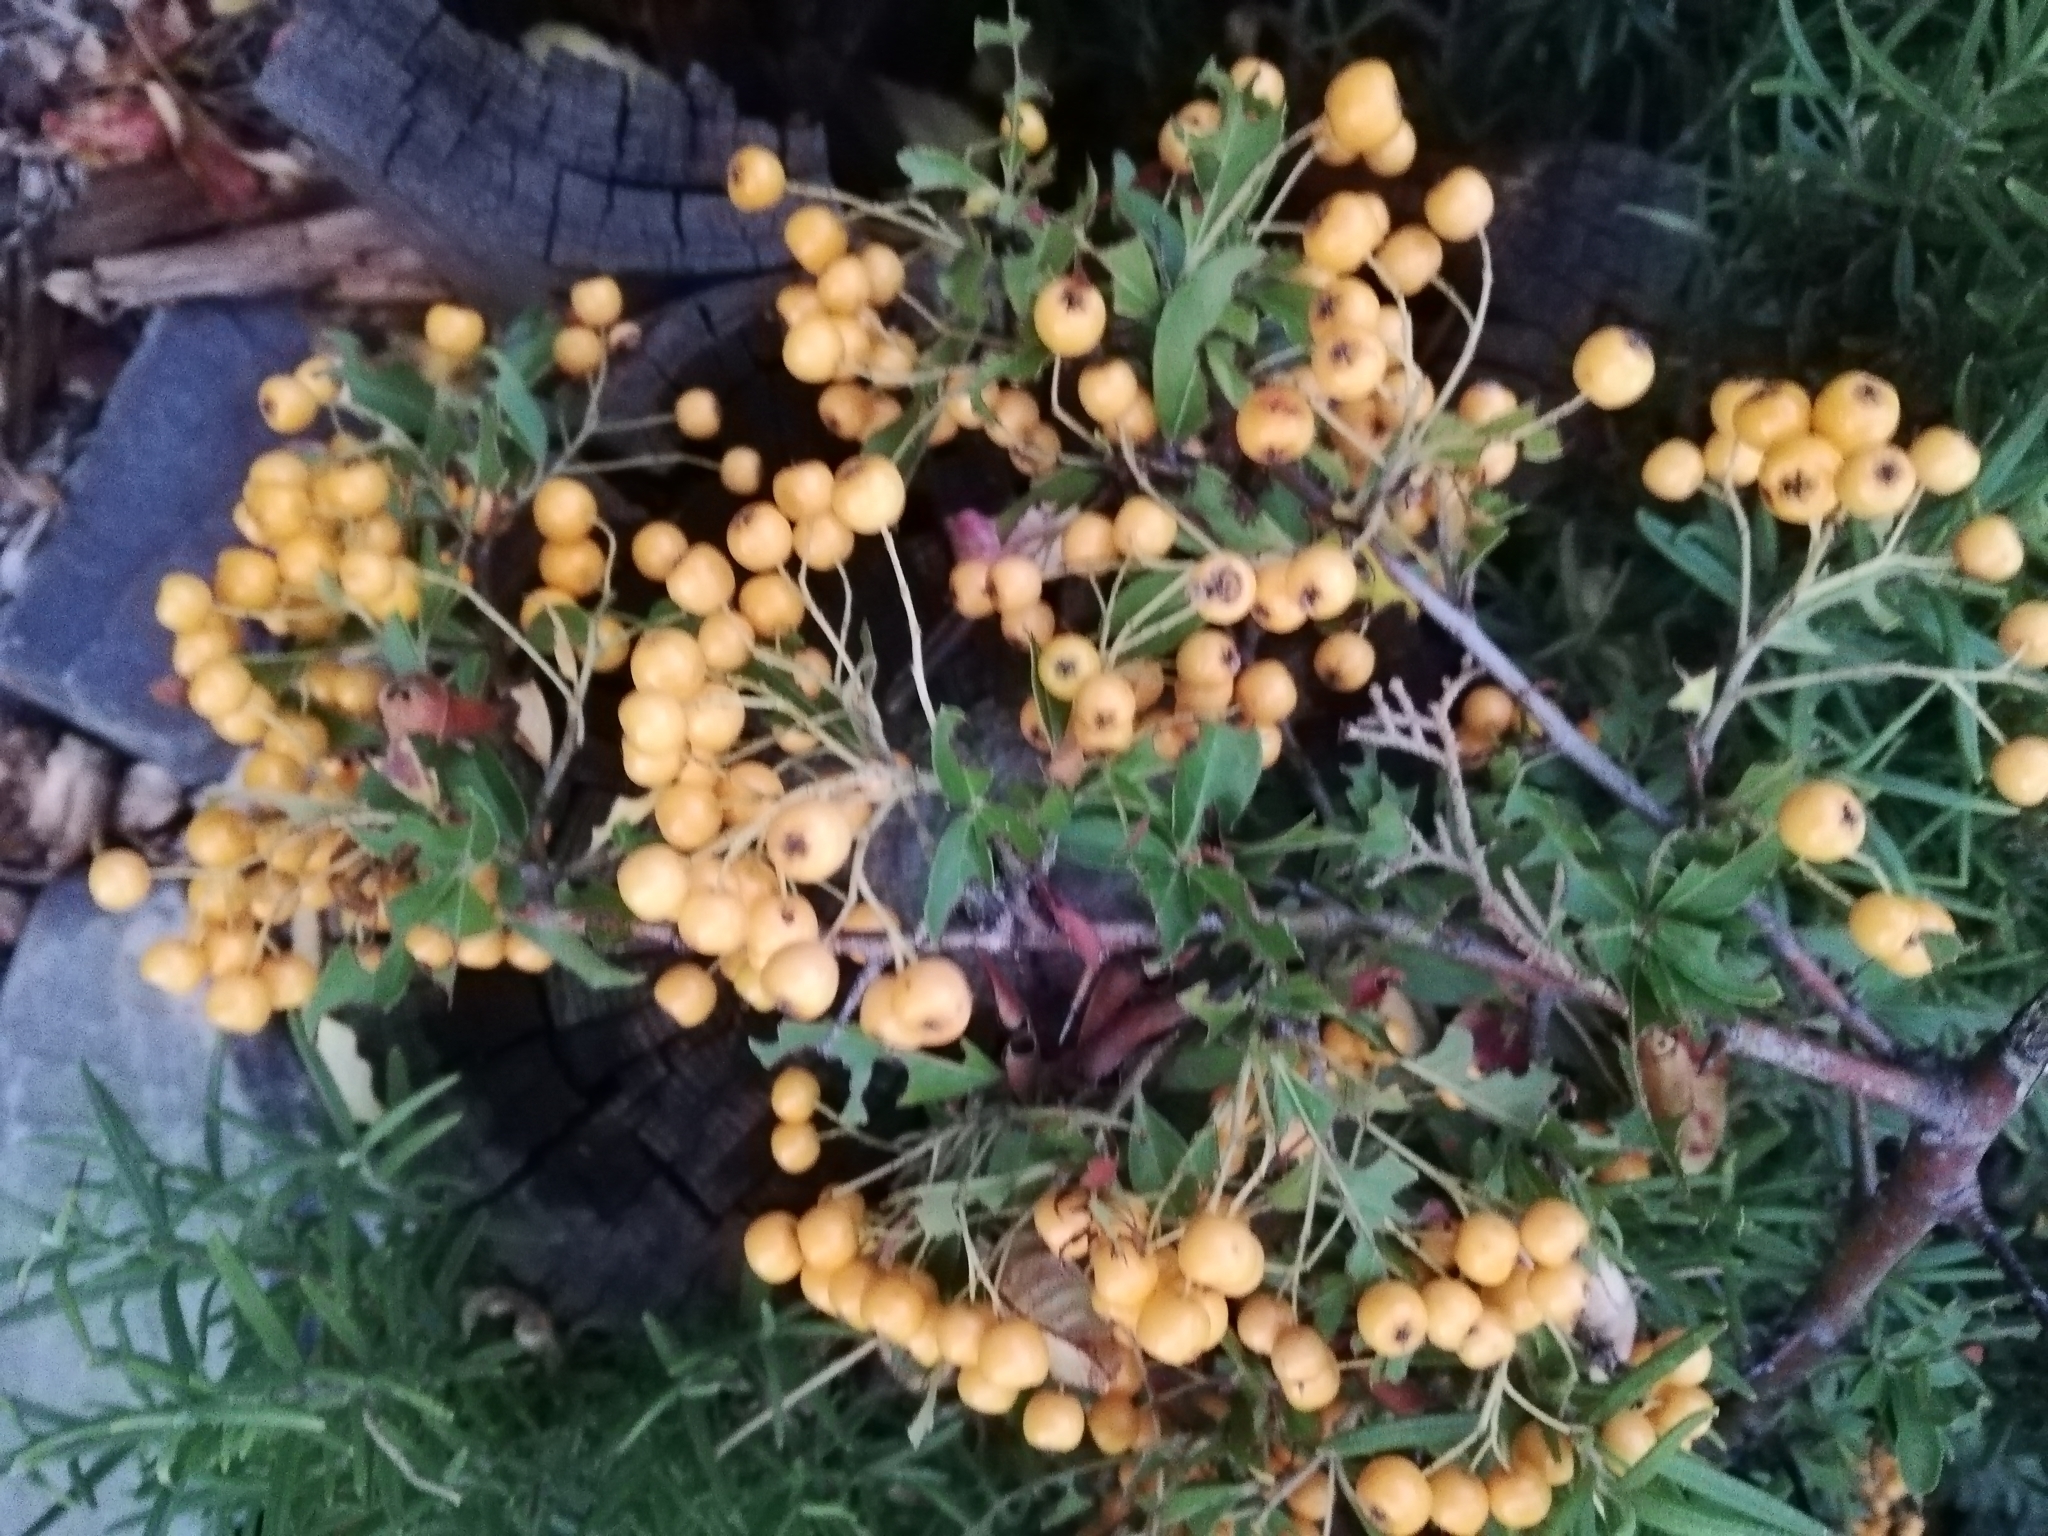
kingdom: Plantae
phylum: Tracheophyta
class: Magnoliopsida
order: Rosales
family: Rosaceae
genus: Pyracantha
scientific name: Pyracantha coccinea
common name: Firethorn
